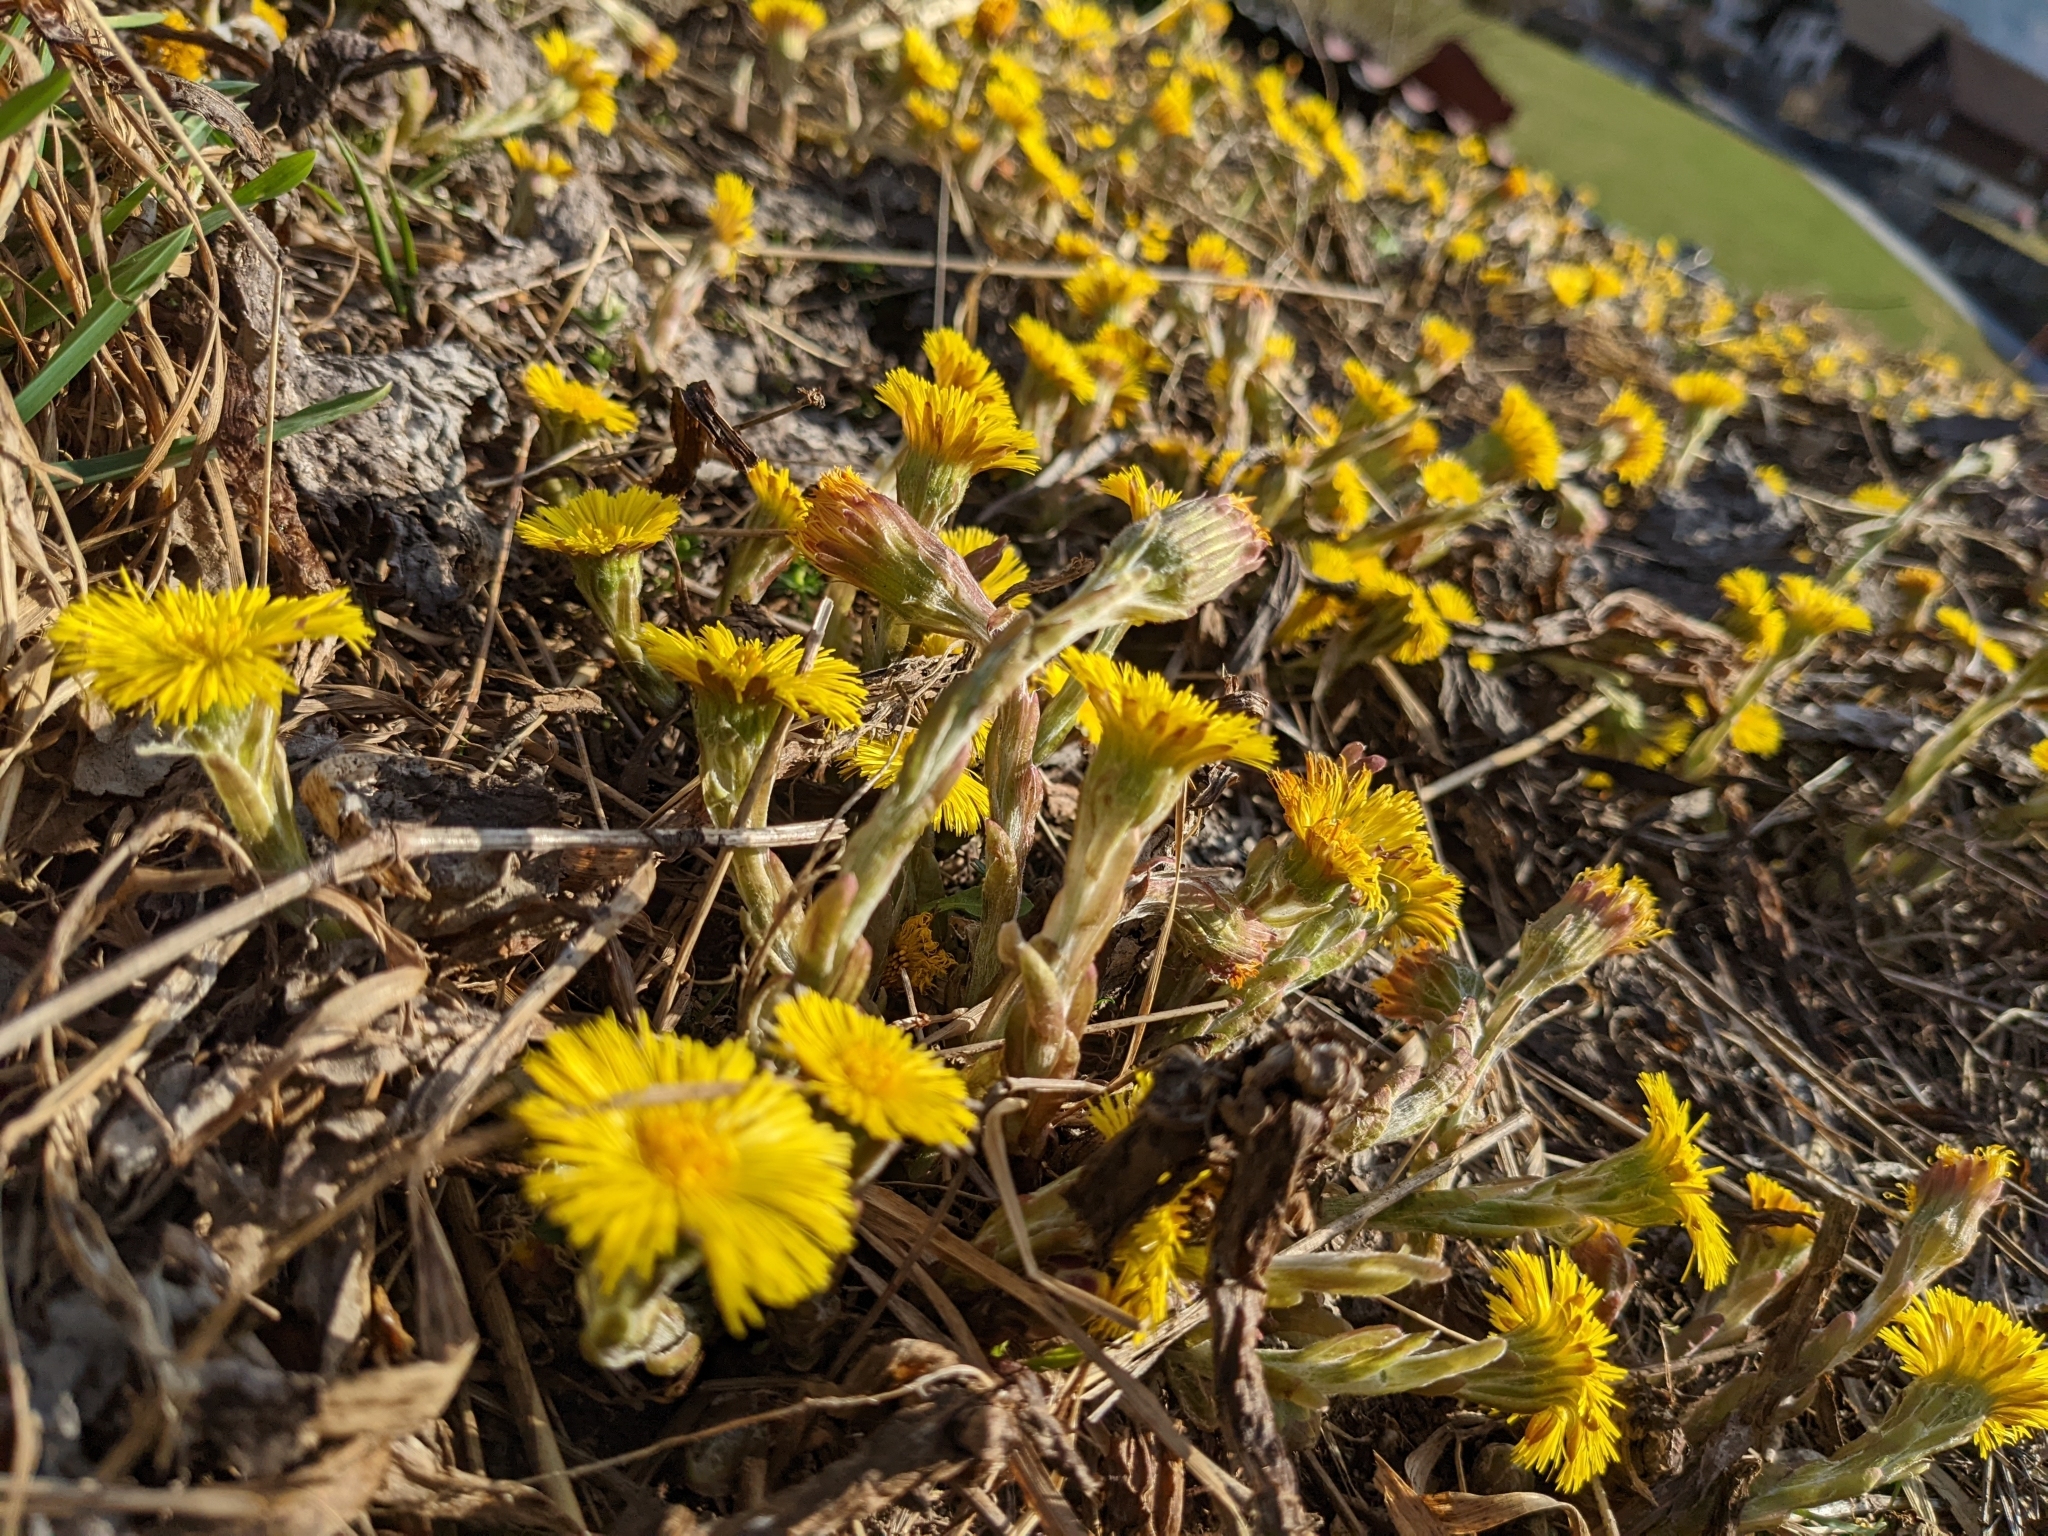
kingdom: Plantae
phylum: Tracheophyta
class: Magnoliopsida
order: Asterales
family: Asteraceae
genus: Tussilago
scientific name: Tussilago farfara
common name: Coltsfoot
